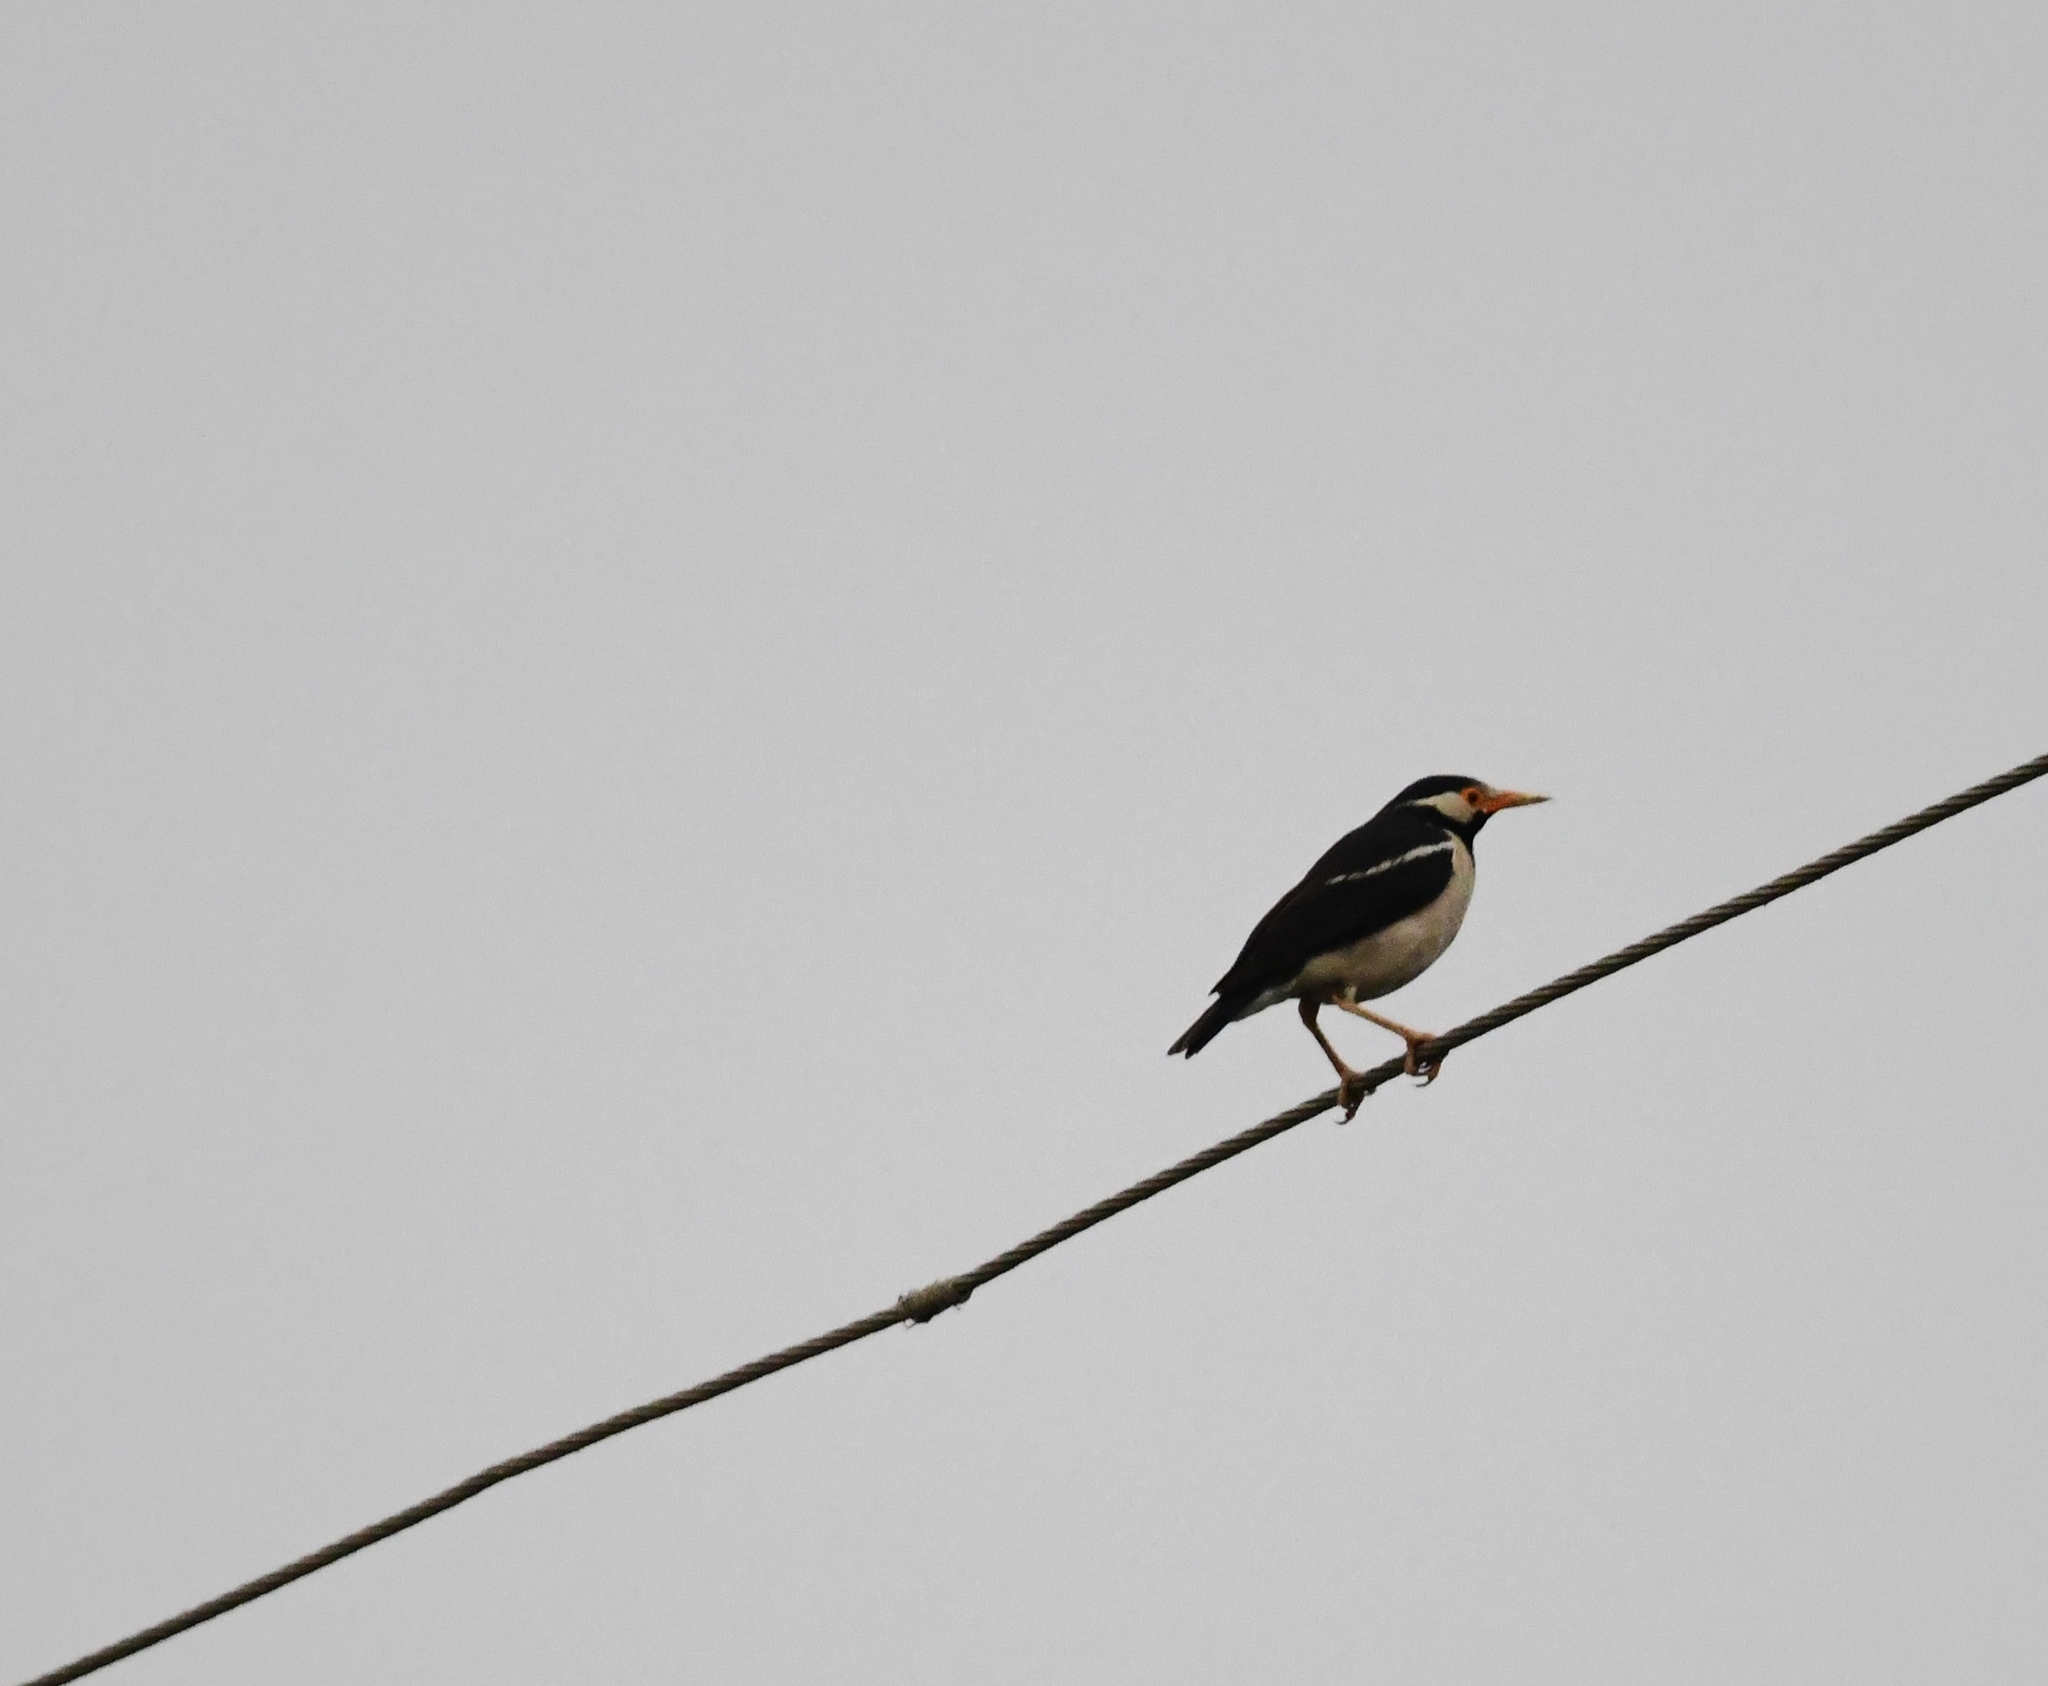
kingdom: Animalia
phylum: Chordata
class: Aves
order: Passeriformes
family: Sturnidae
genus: Gracupica
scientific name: Gracupica contra
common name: Pied myna
